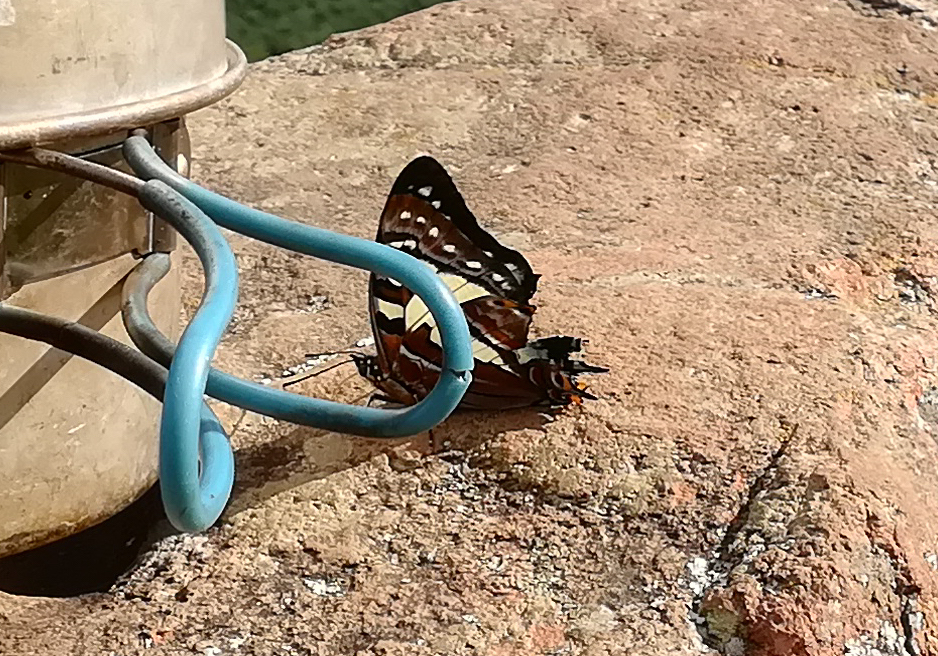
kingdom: Animalia
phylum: Arthropoda
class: Insecta
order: Lepidoptera
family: Nymphalidae
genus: Charaxes
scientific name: Charaxes
